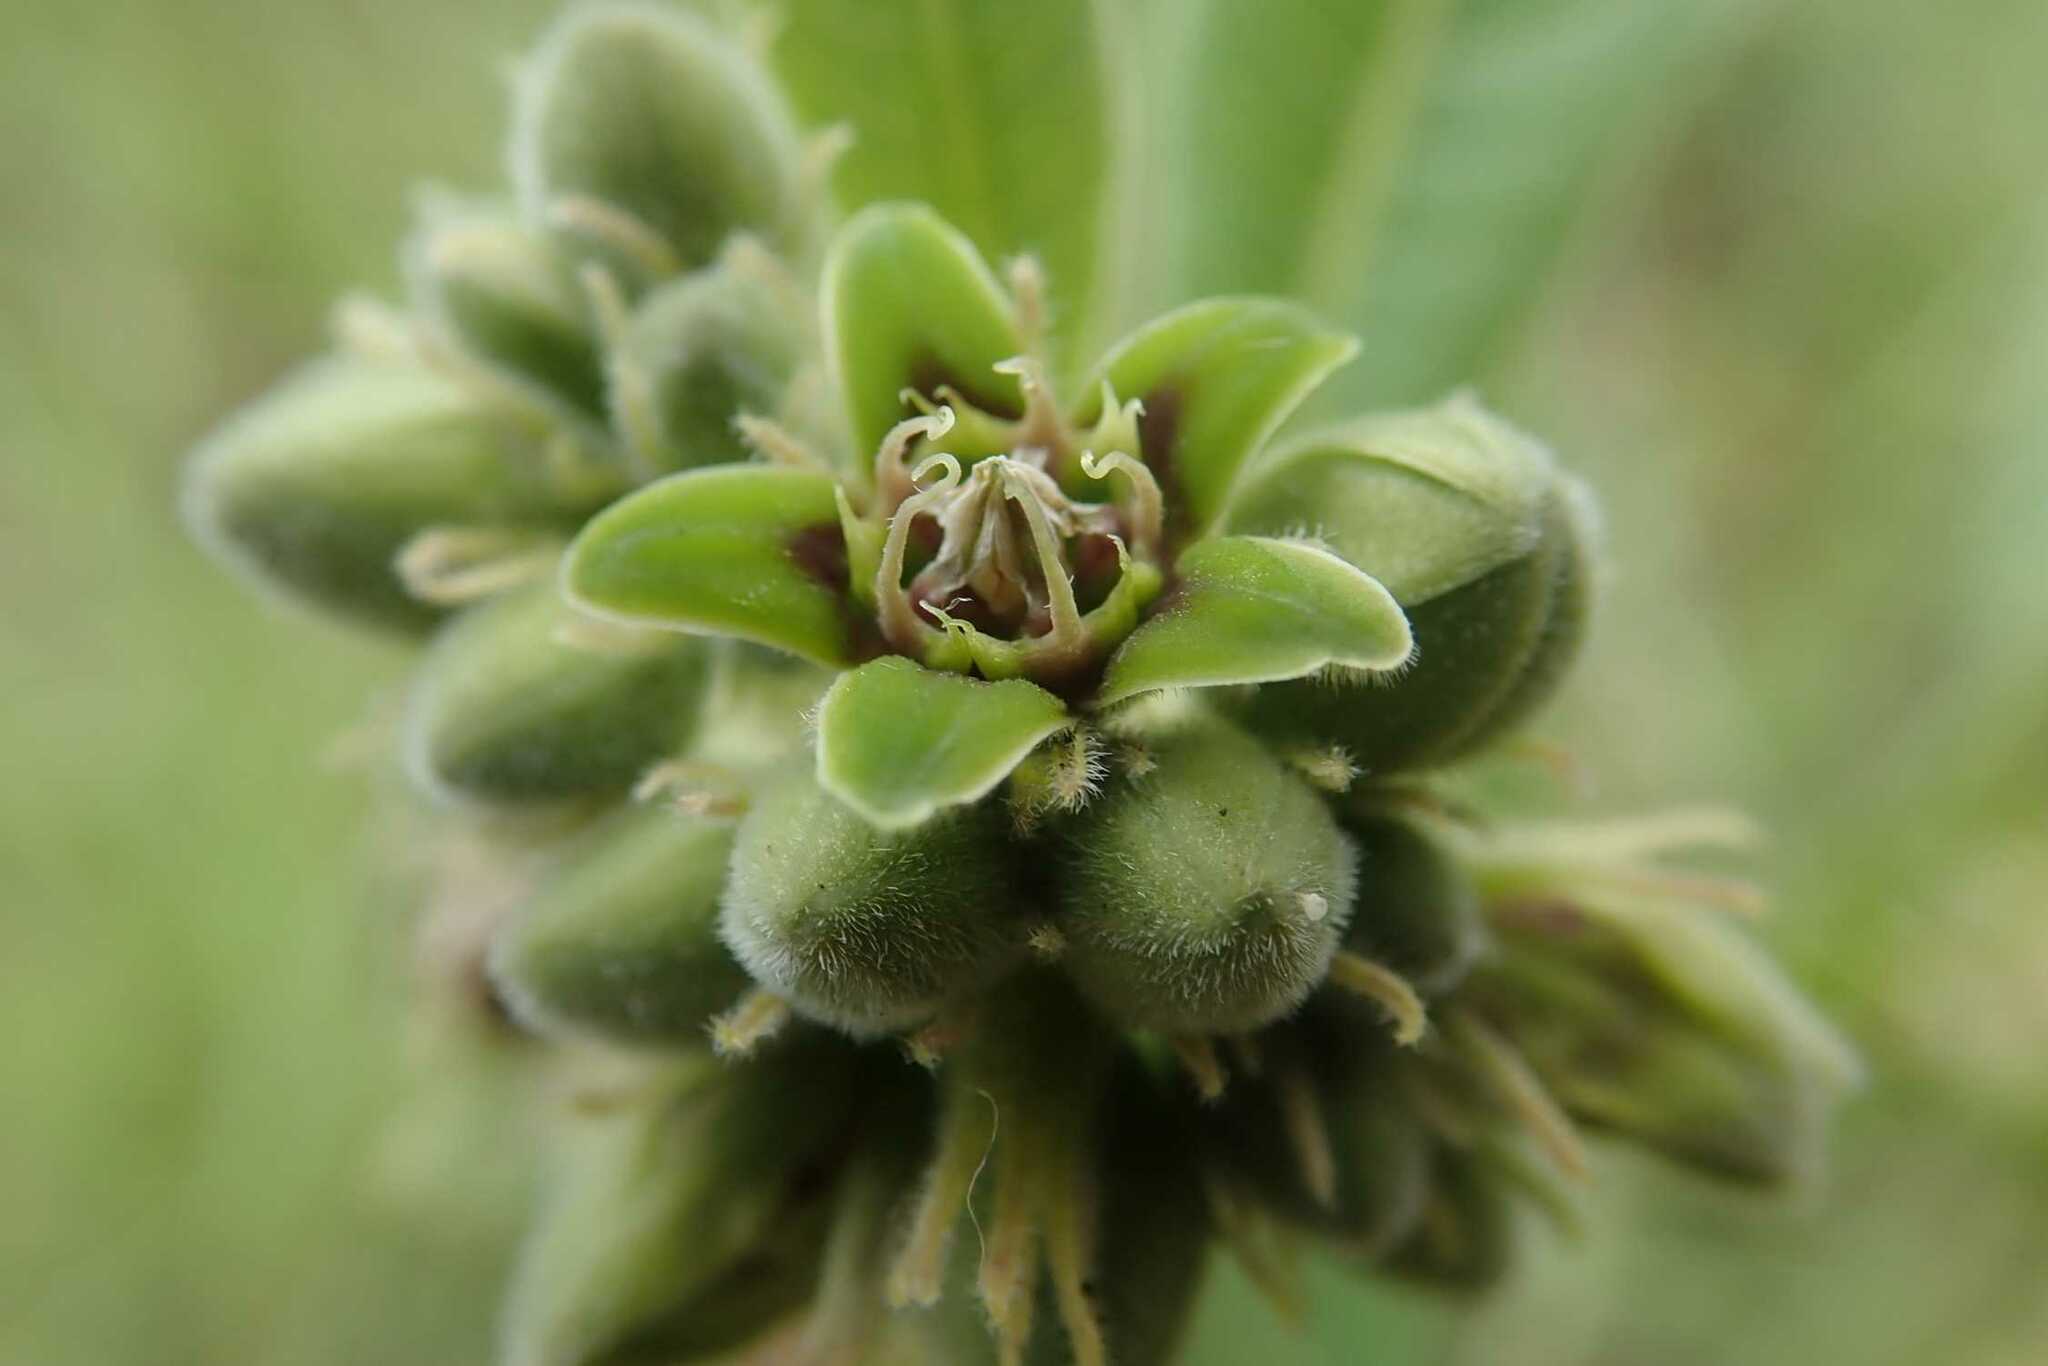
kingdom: Plantae
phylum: Tracheophyta
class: Magnoliopsida
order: Gentianales
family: Apocynaceae
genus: Raphionacme
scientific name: Raphionacme galpinii
